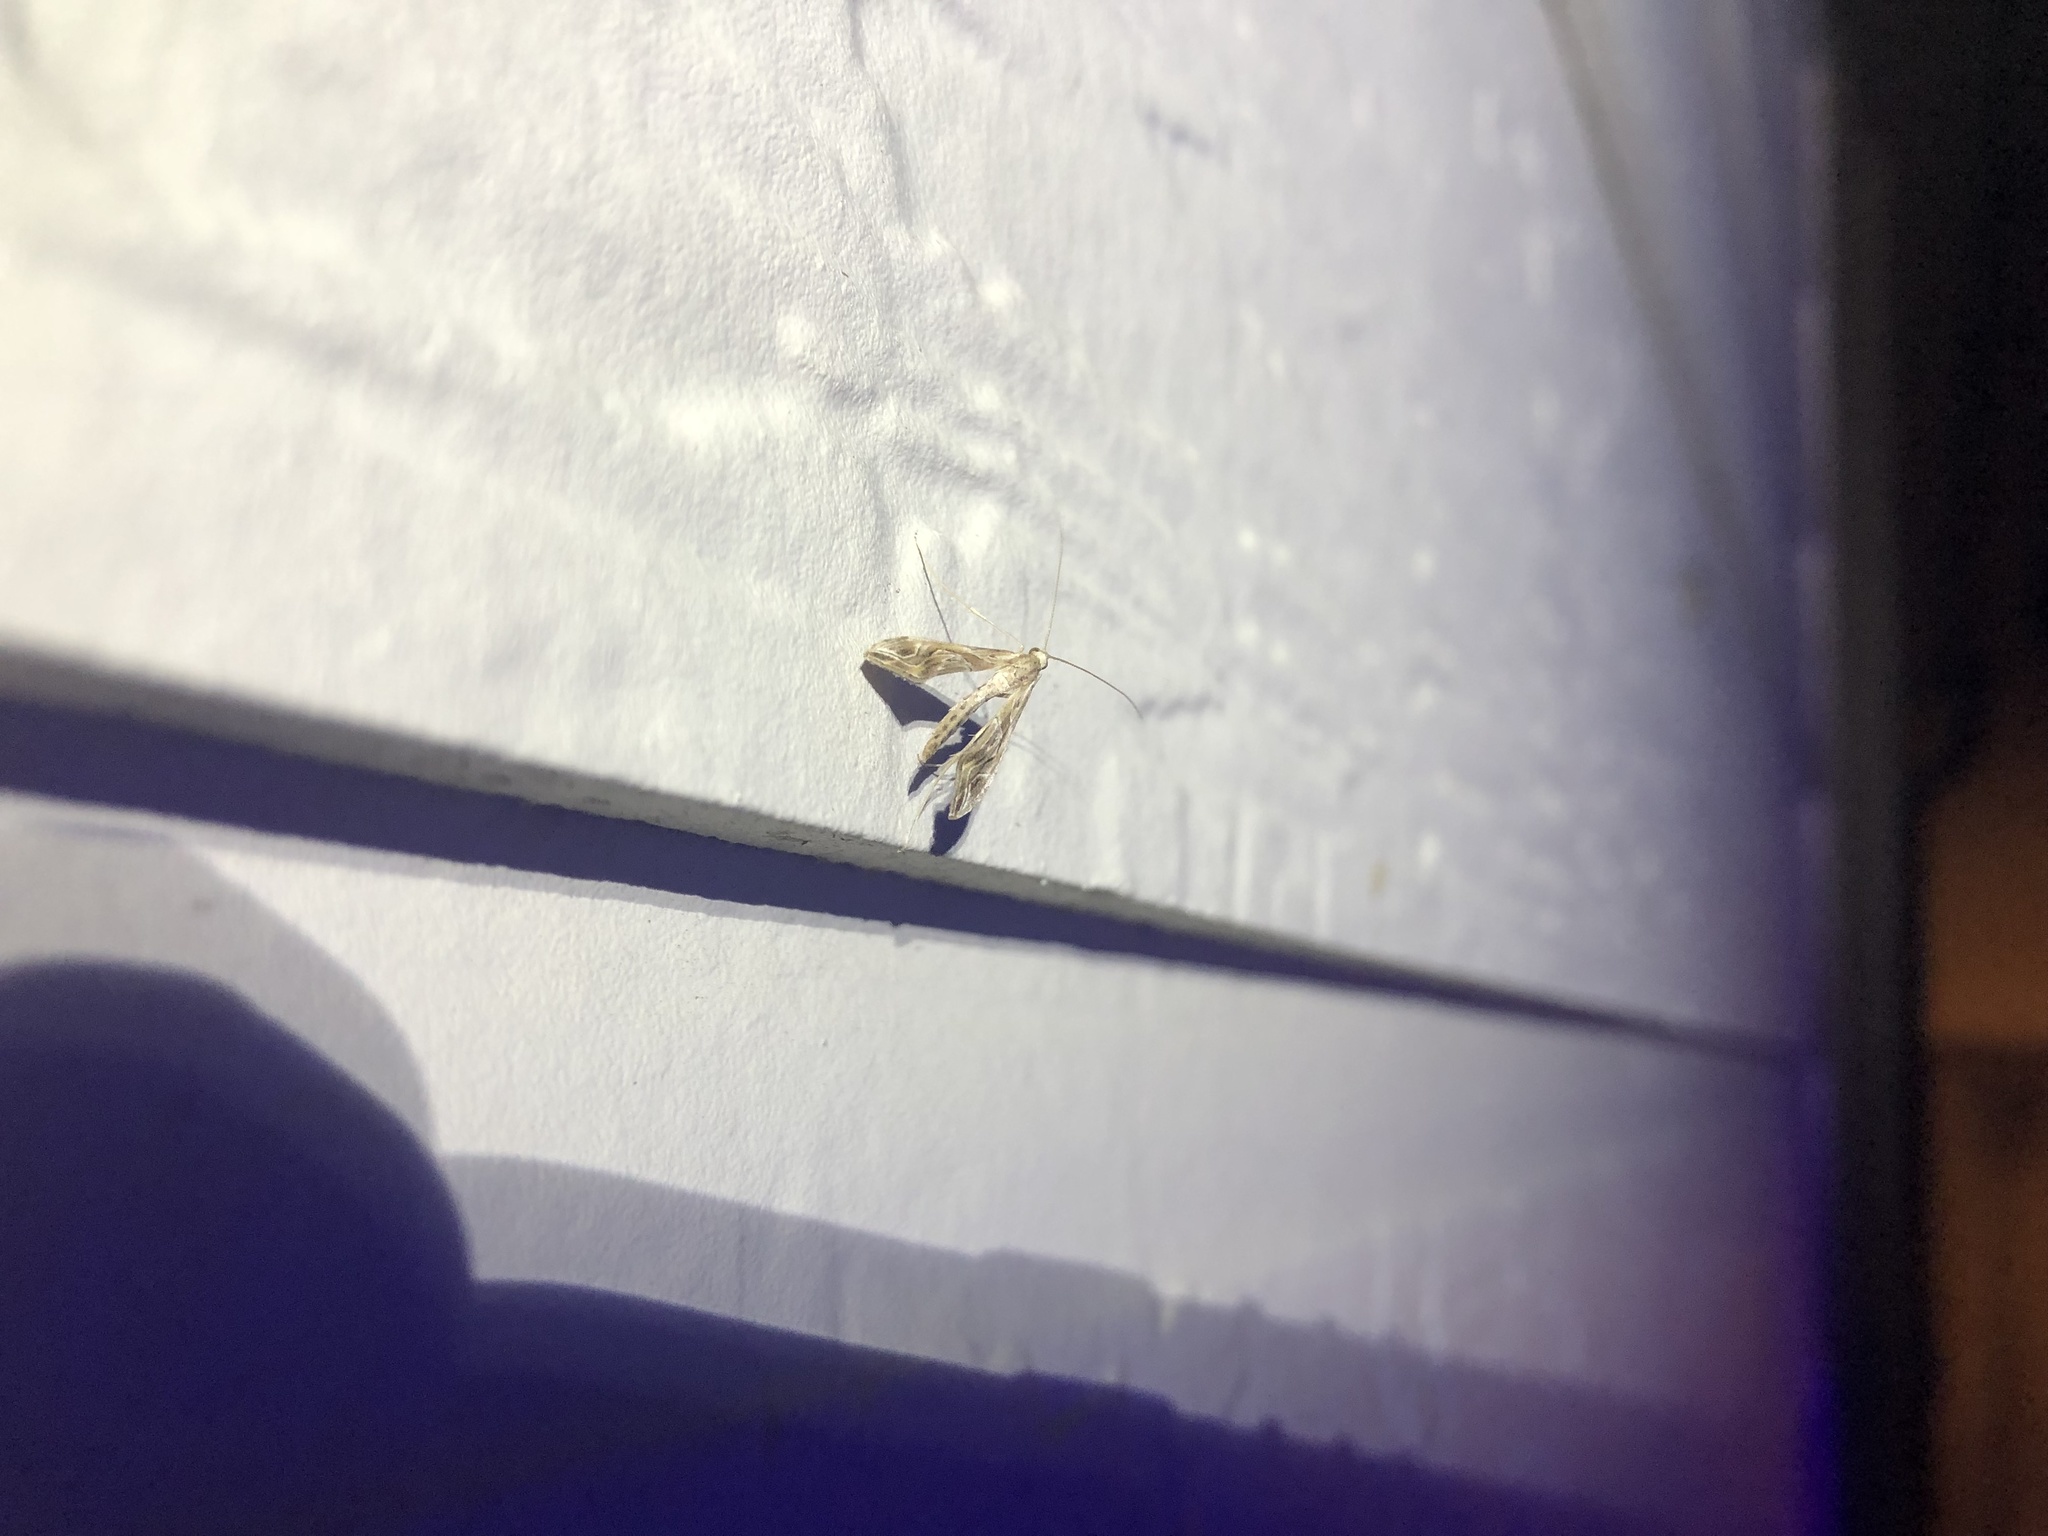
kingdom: Animalia
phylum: Arthropoda
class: Insecta
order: Lepidoptera
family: Crambidae
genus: Lineodes
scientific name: Lineodes integra
